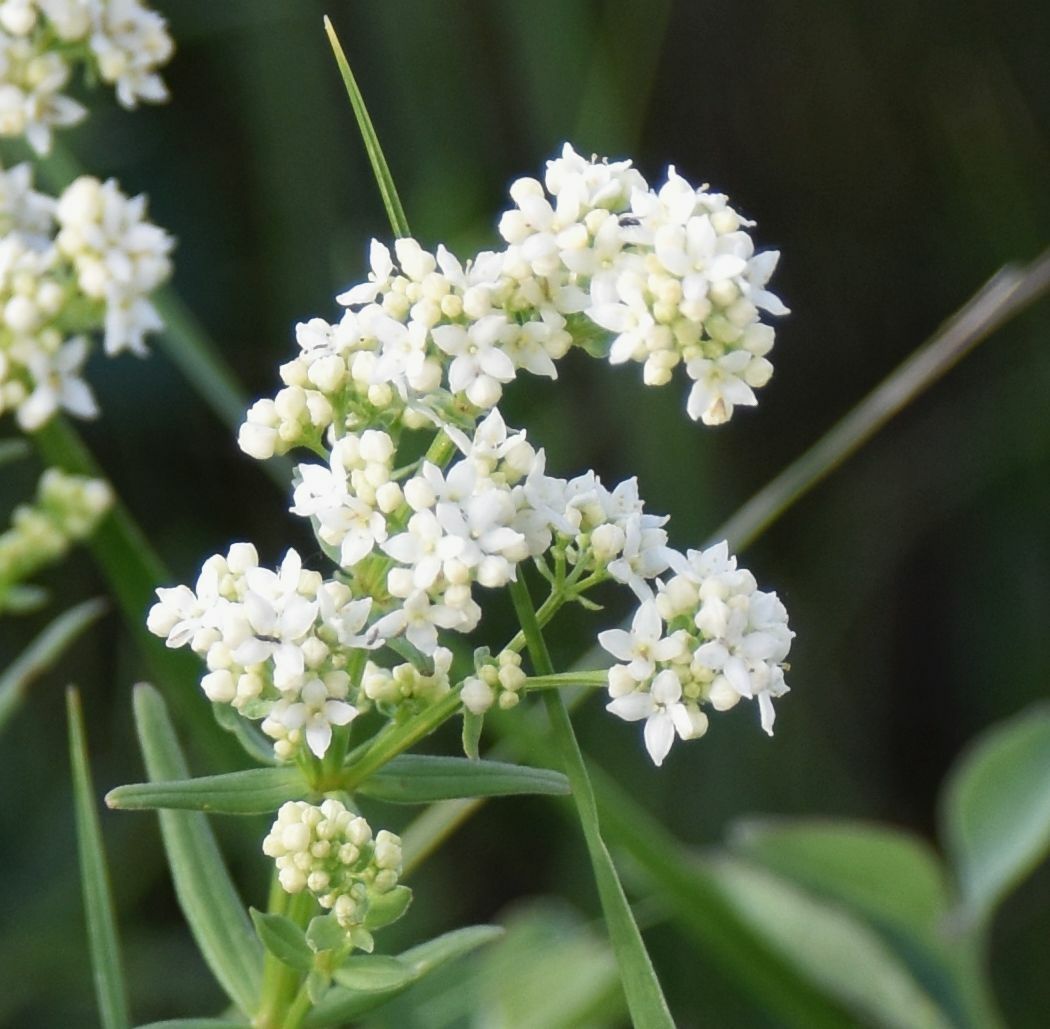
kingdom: Plantae
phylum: Tracheophyta
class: Magnoliopsida
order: Gentianales
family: Rubiaceae
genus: Galium
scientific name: Galium boreale
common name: Northern bedstraw
